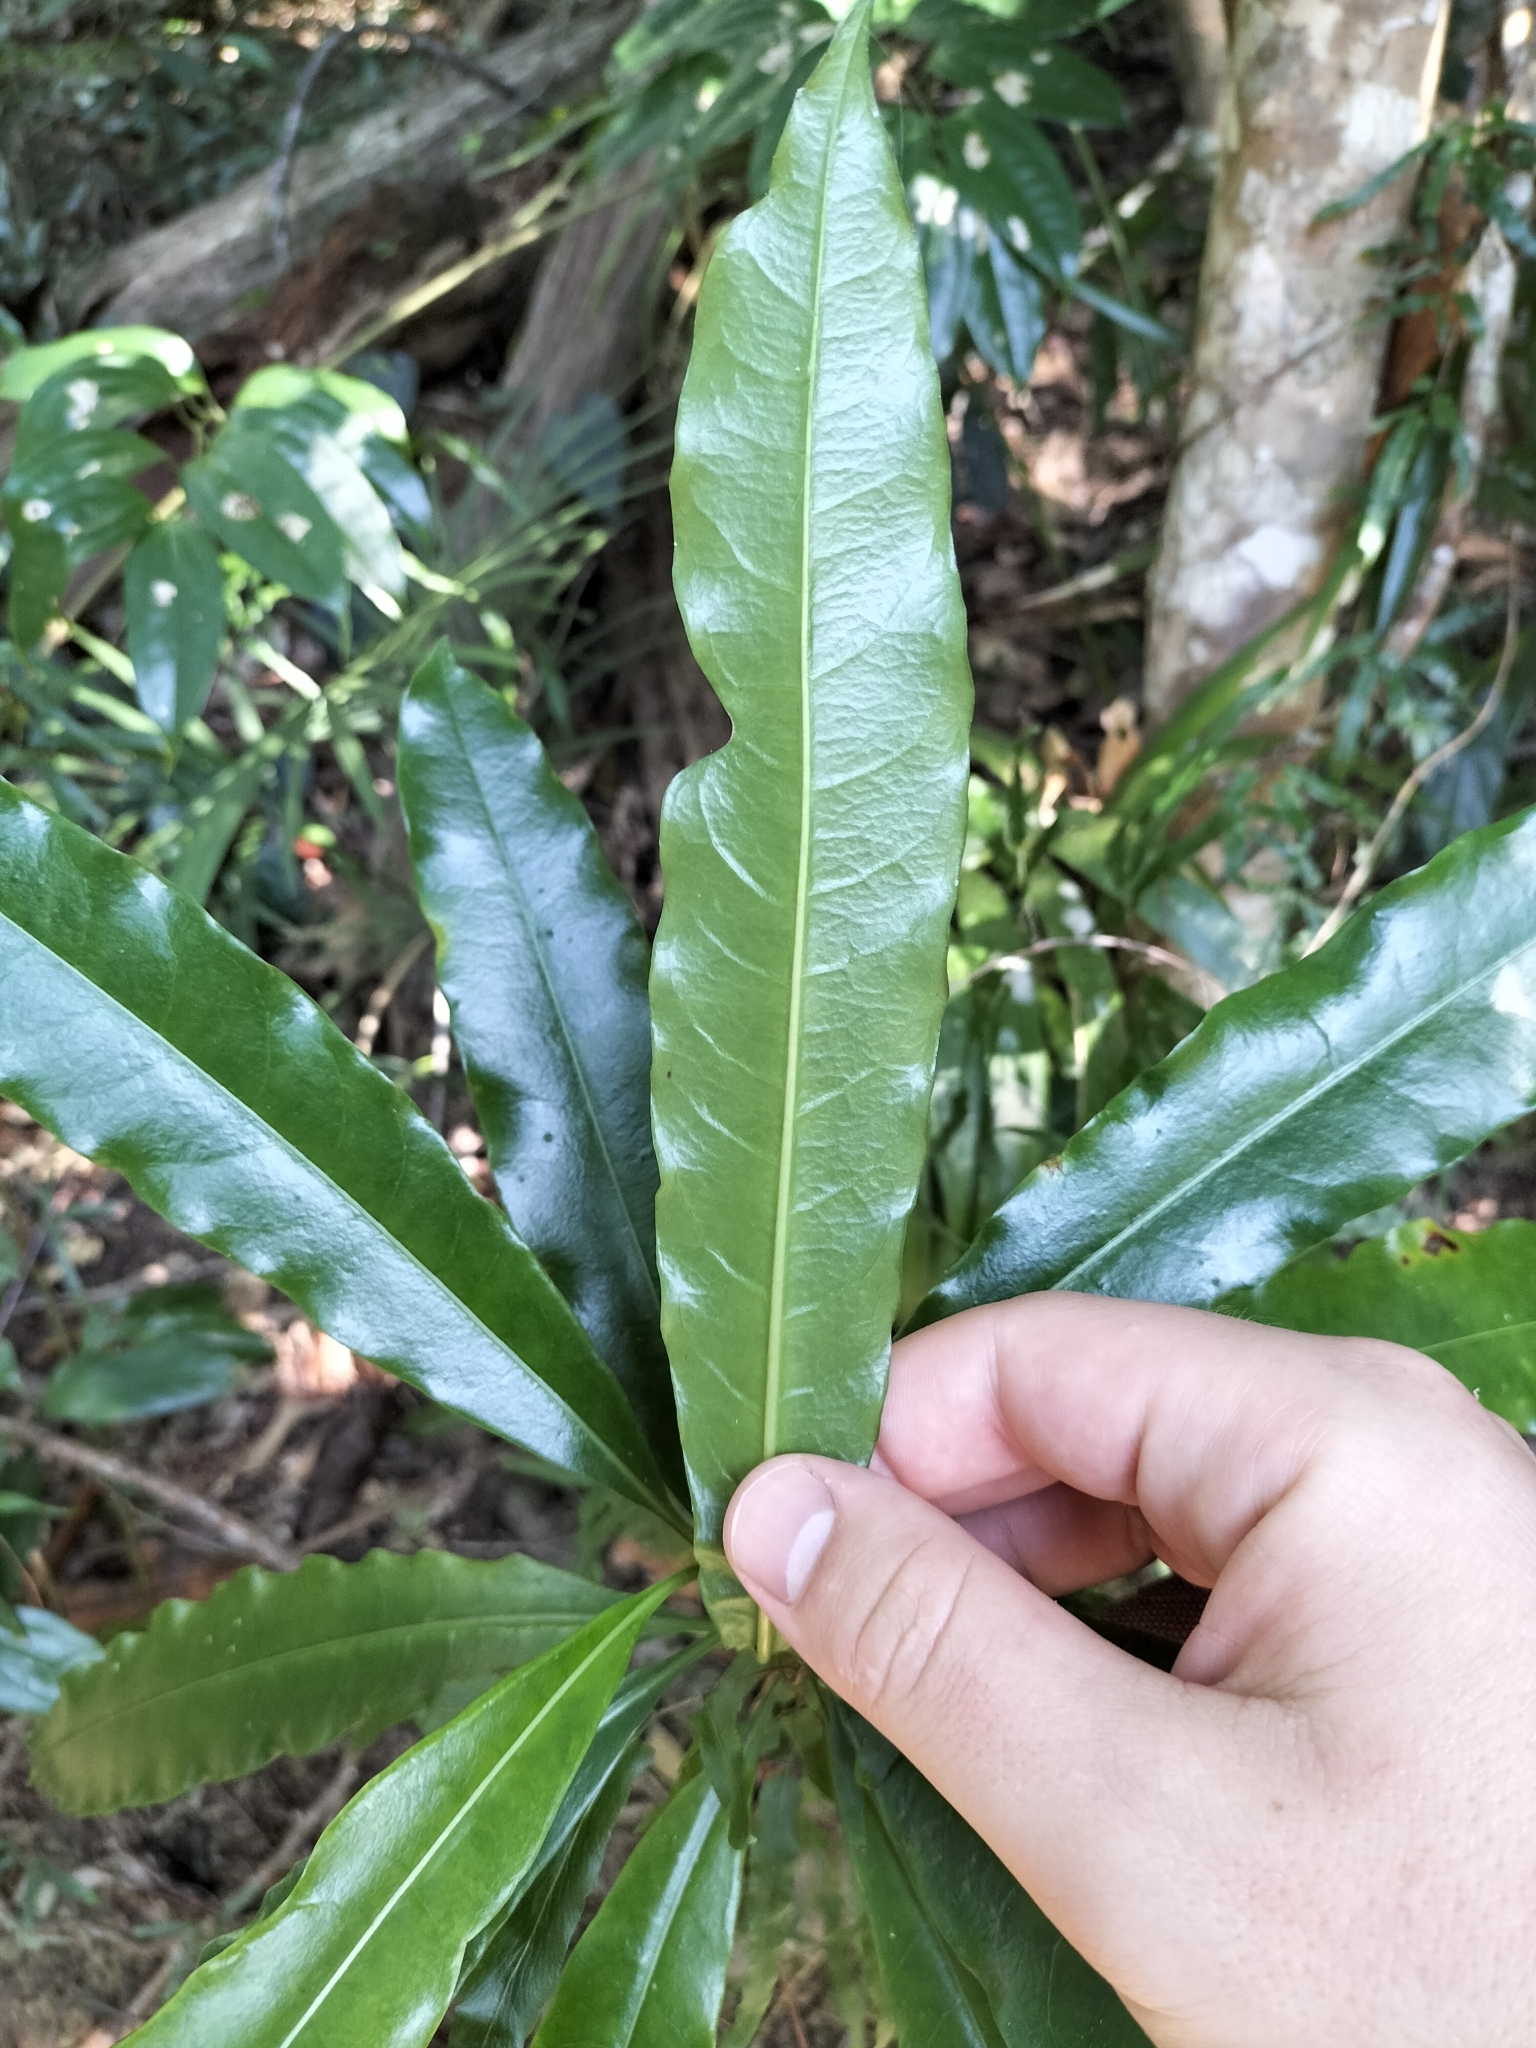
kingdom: Plantae
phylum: Tracheophyta
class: Magnoliopsida
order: Gentianales
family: Apocynaceae
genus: Cerbera
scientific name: Cerbera inflata
